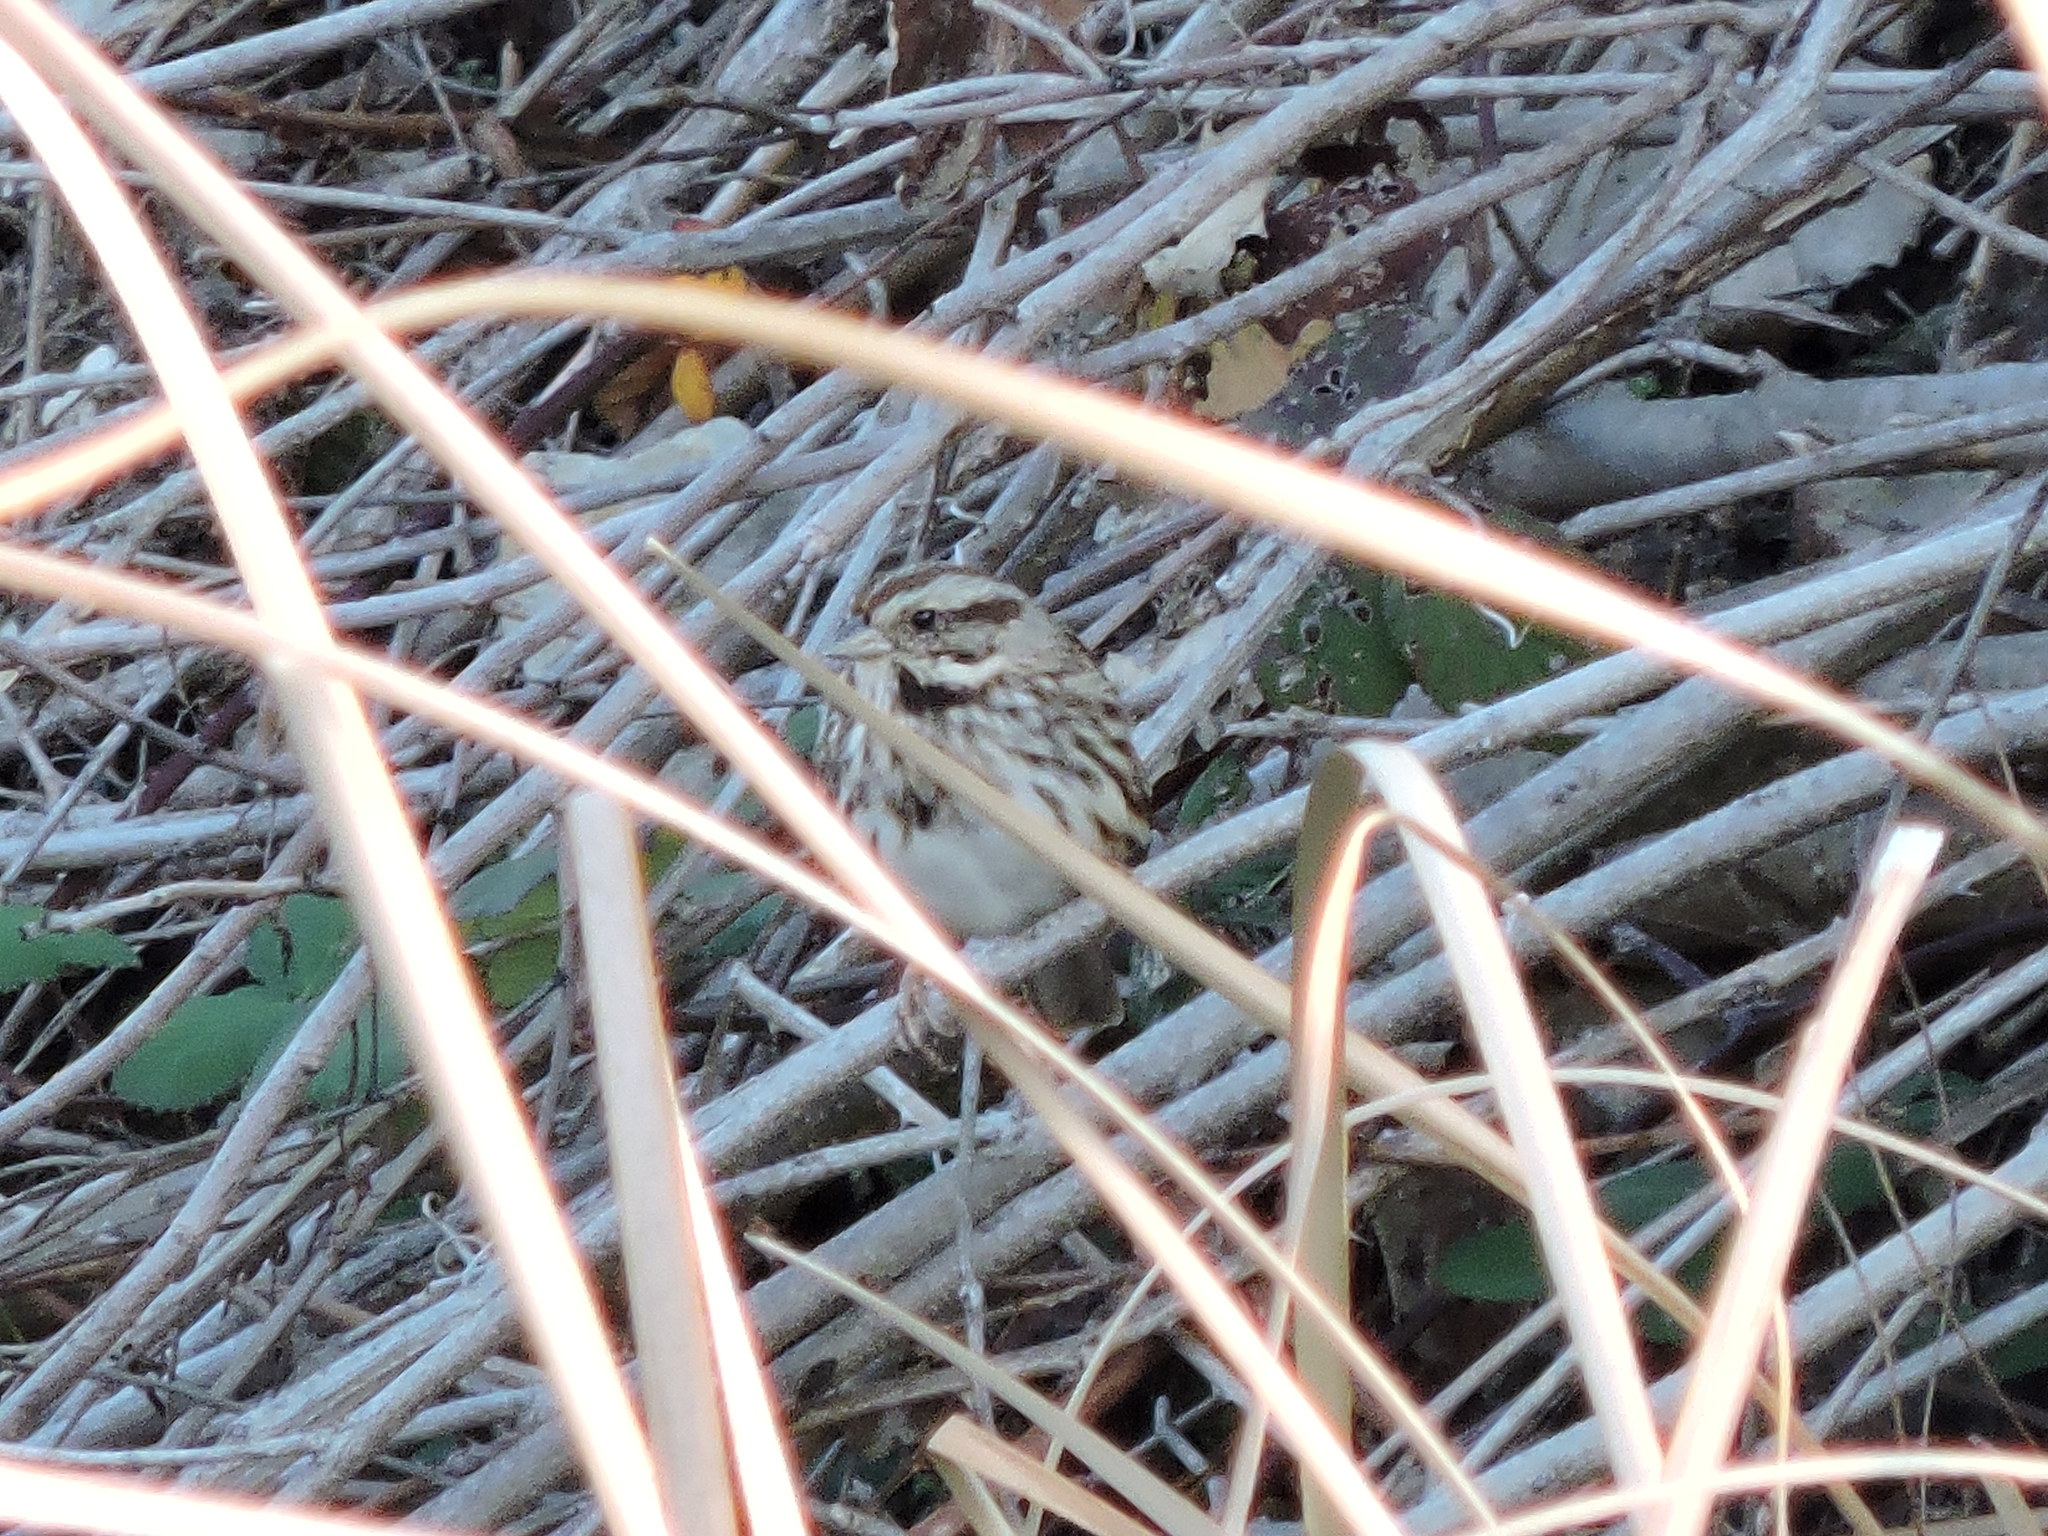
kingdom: Animalia
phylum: Chordata
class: Aves
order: Passeriformes
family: Passerellidae
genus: Melospiza
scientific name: Melospiza melodia
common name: Song sparrow
